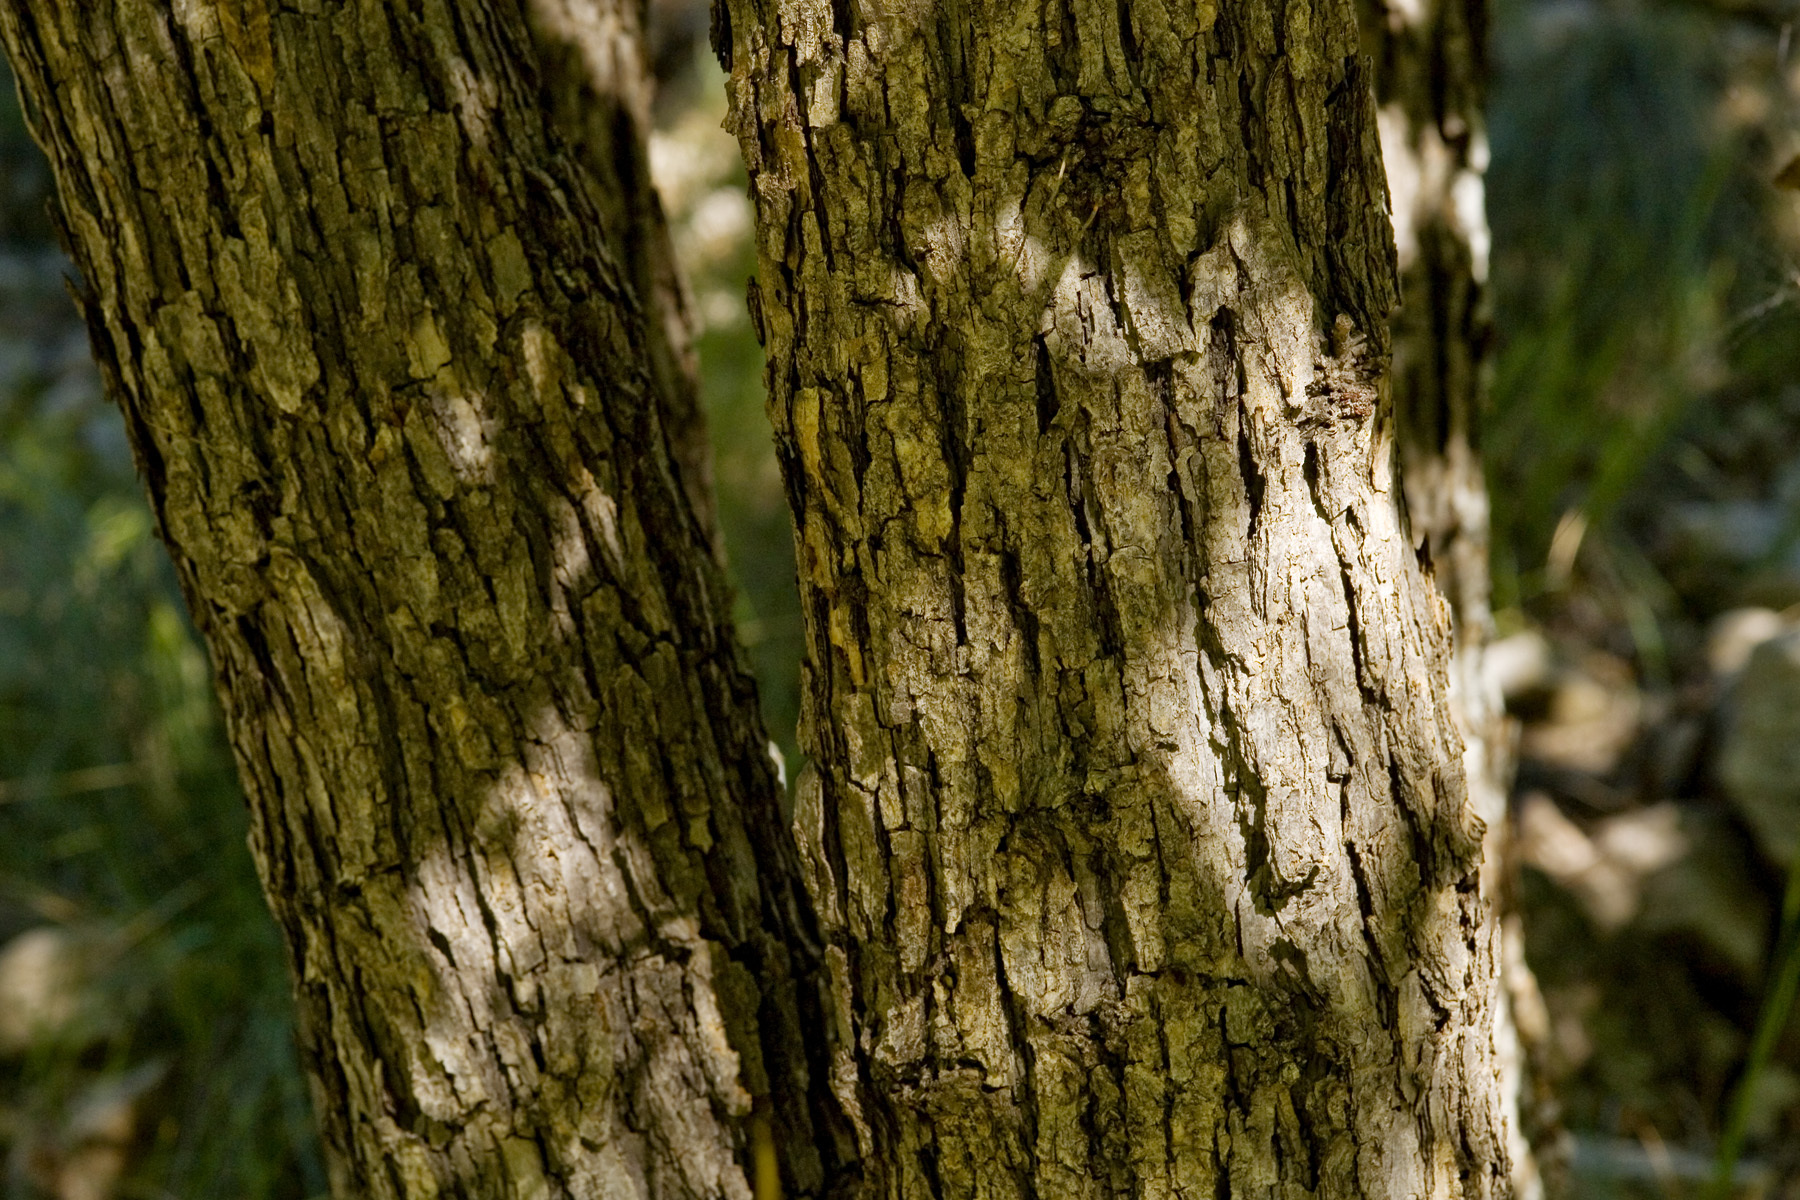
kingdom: Plantae
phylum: Tracheophyta
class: Magnoliopsida
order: Fagales
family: Fagaceae
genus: Quercus
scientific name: Quercus muehlenbergii
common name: Chinkapin oak
